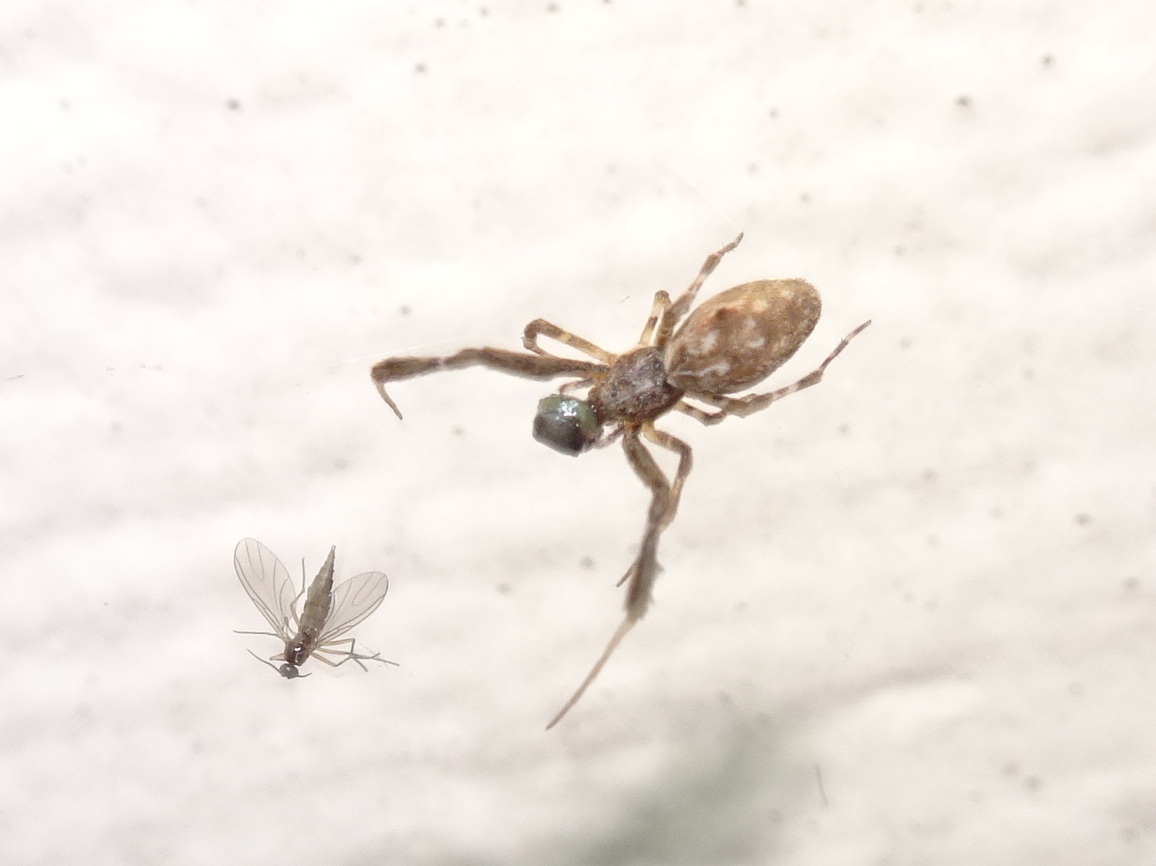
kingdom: Animalia
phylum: Arthropoda
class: Arachnida
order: Araneae
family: Uloboridae
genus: Uloborus
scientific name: Uloborus glomosus
